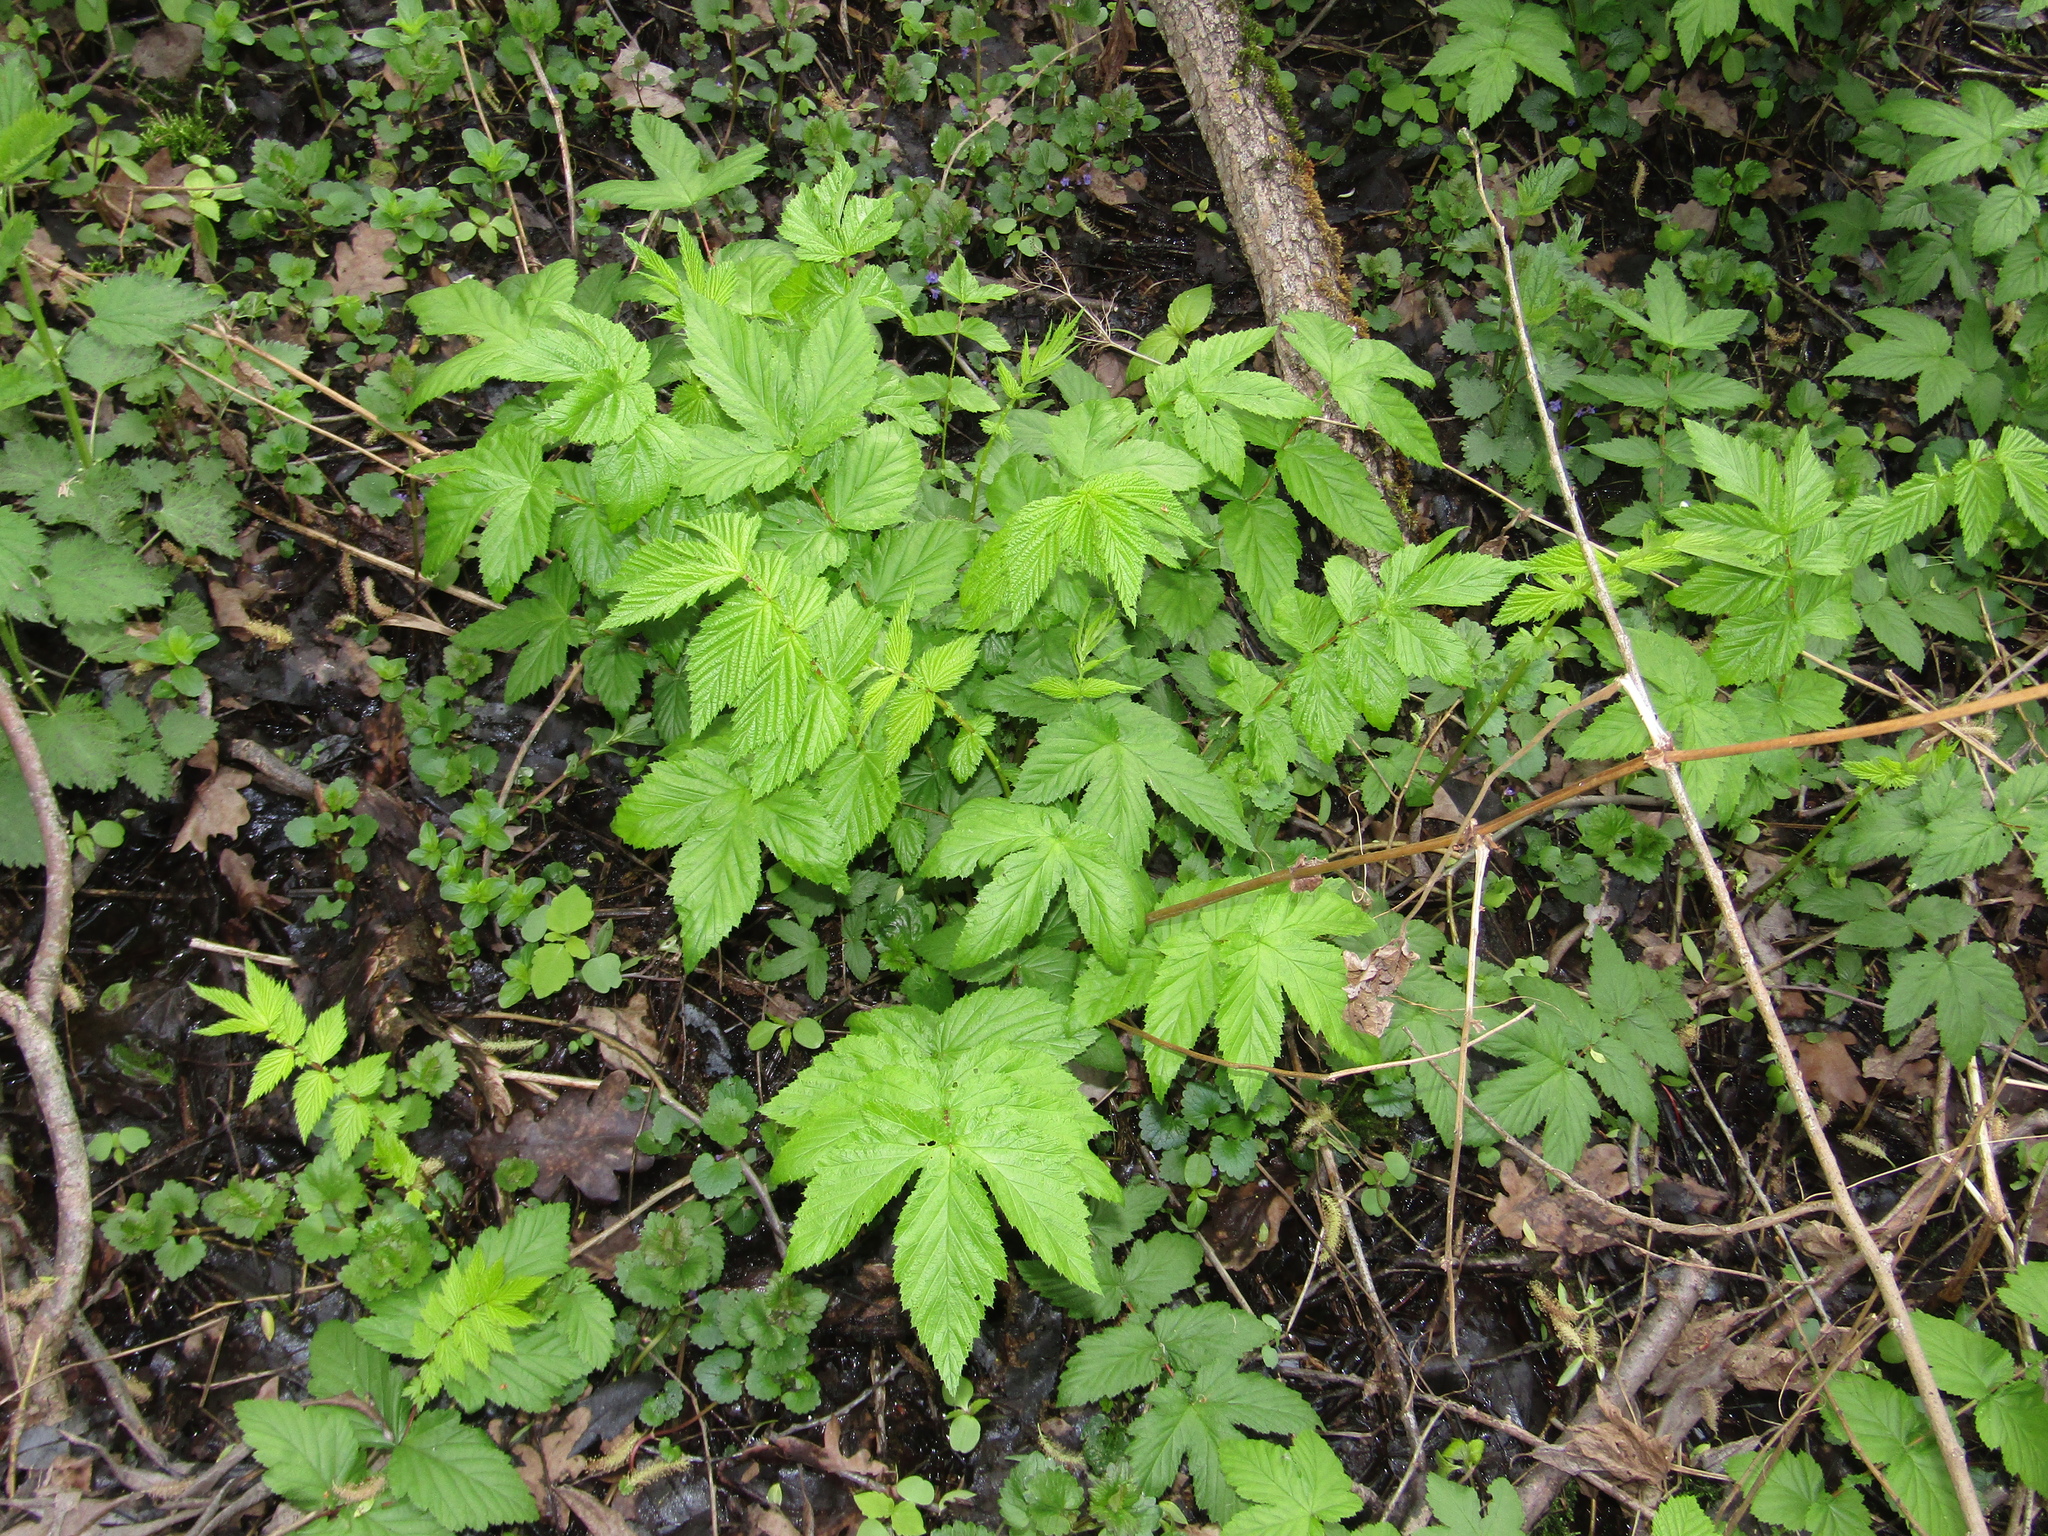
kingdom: Plantae
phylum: Tracheophyta
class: Magnoliopsida
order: Rosales
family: Rosaceae
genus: Filipendula
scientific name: Filipendula ulmaria
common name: Meadowsweet
